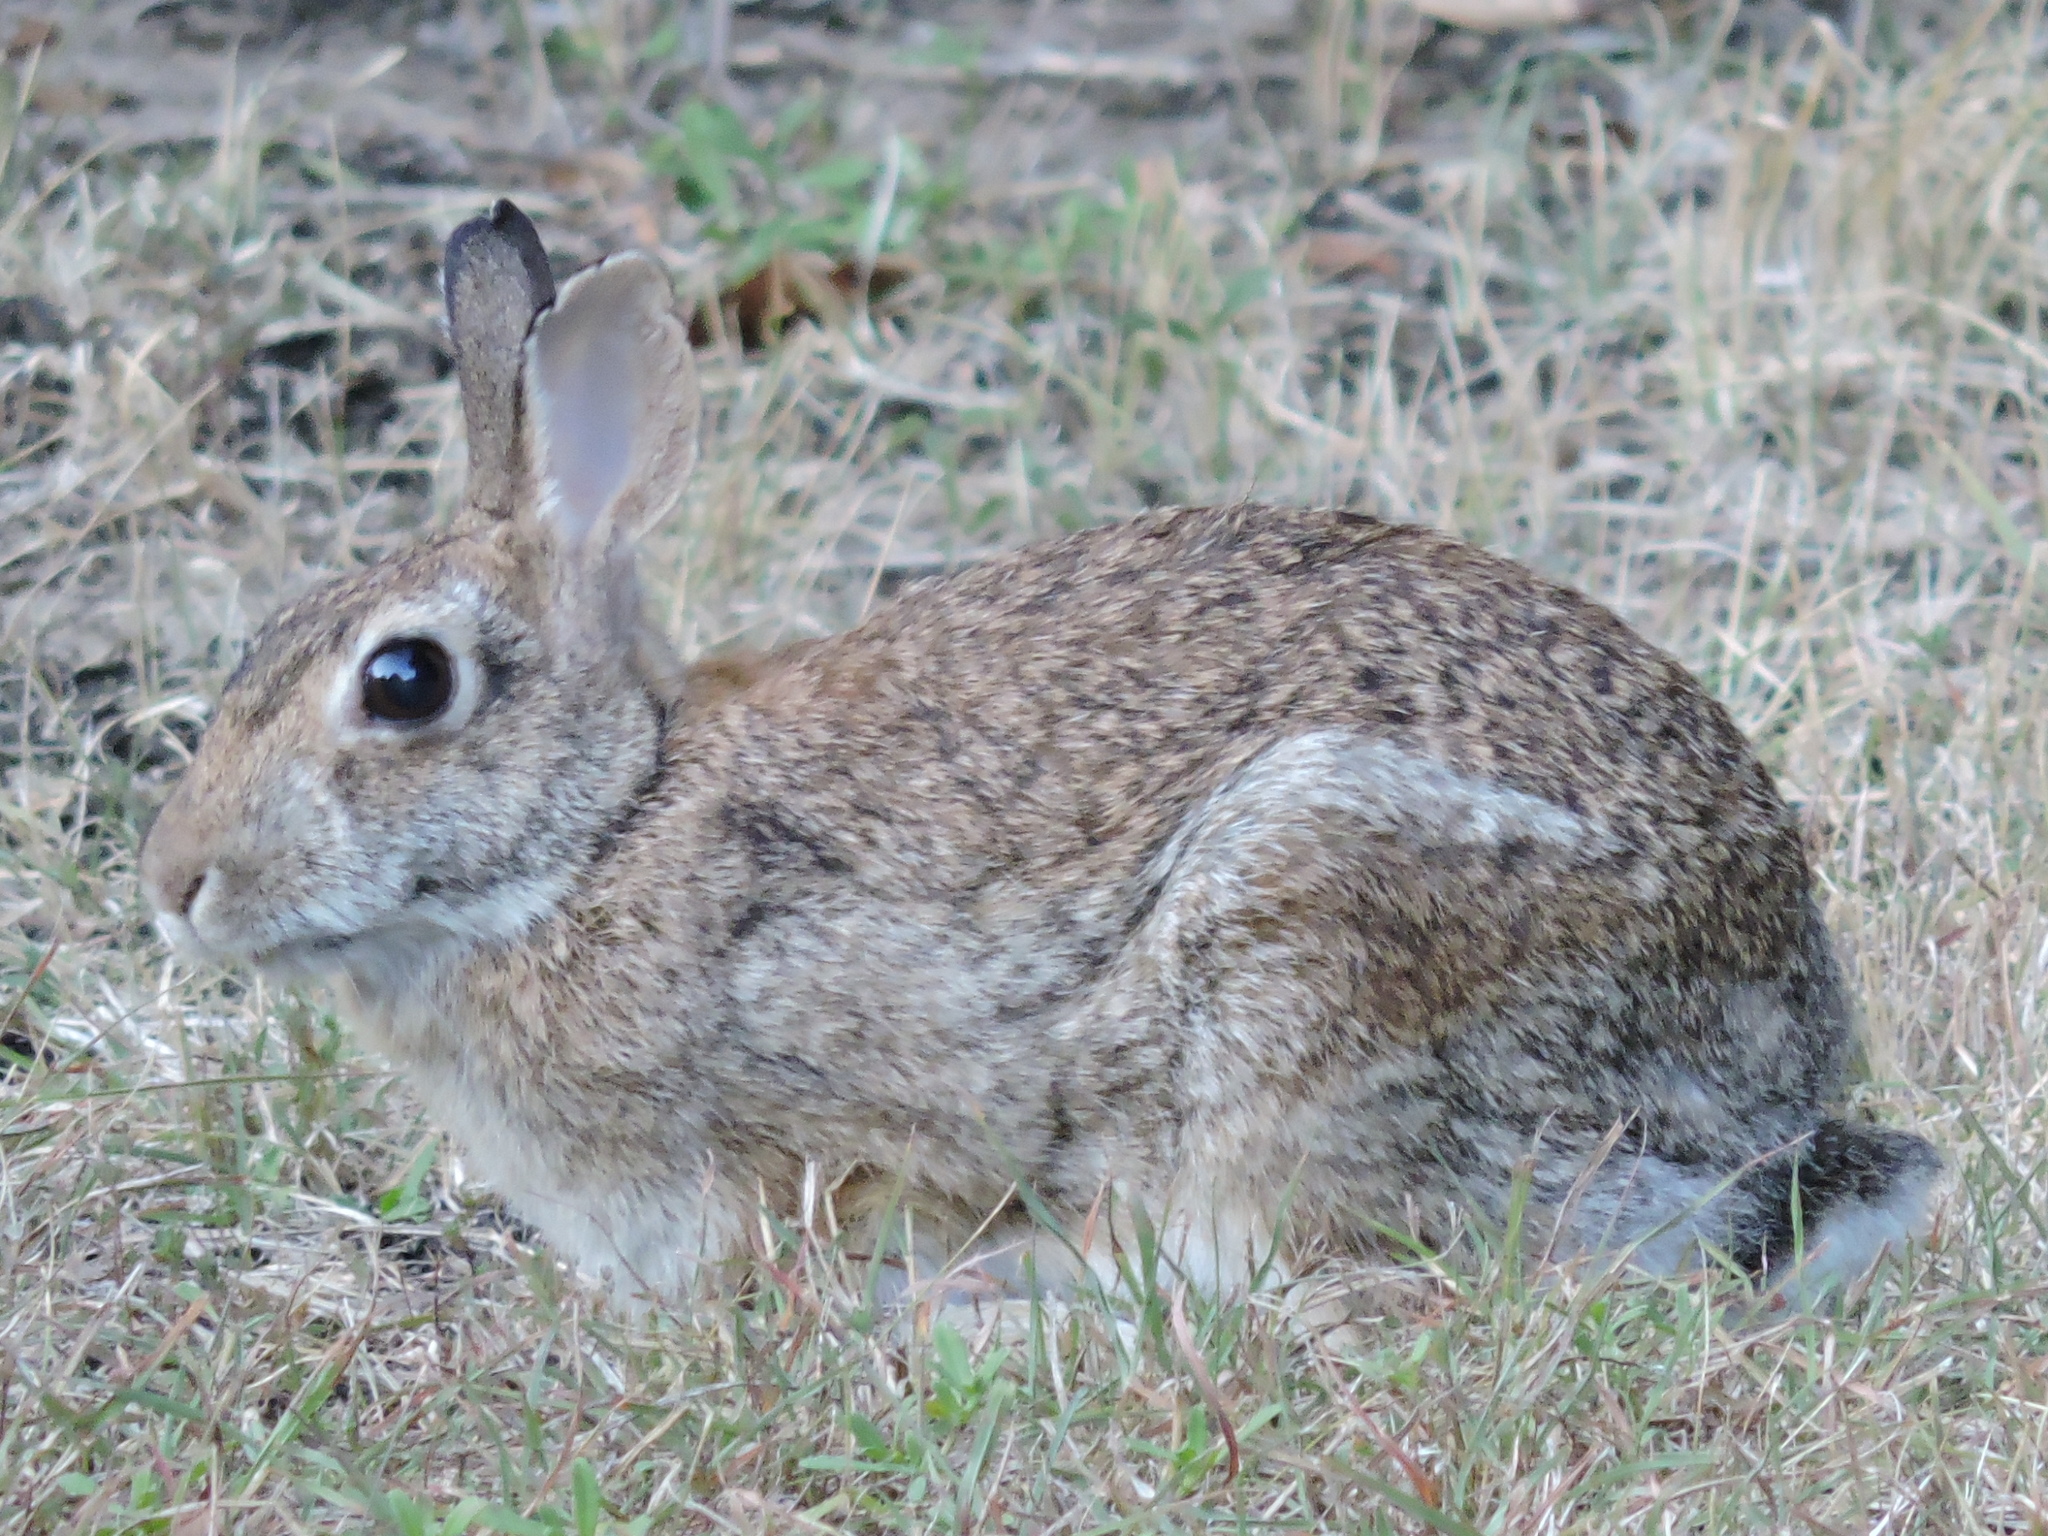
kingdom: Animalia
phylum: Chordata
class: Mammalia
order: Lagomorpha
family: Leporidae
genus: Sylvilagus
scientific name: Sylvilagus floridanus
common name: Eastern cottontail
